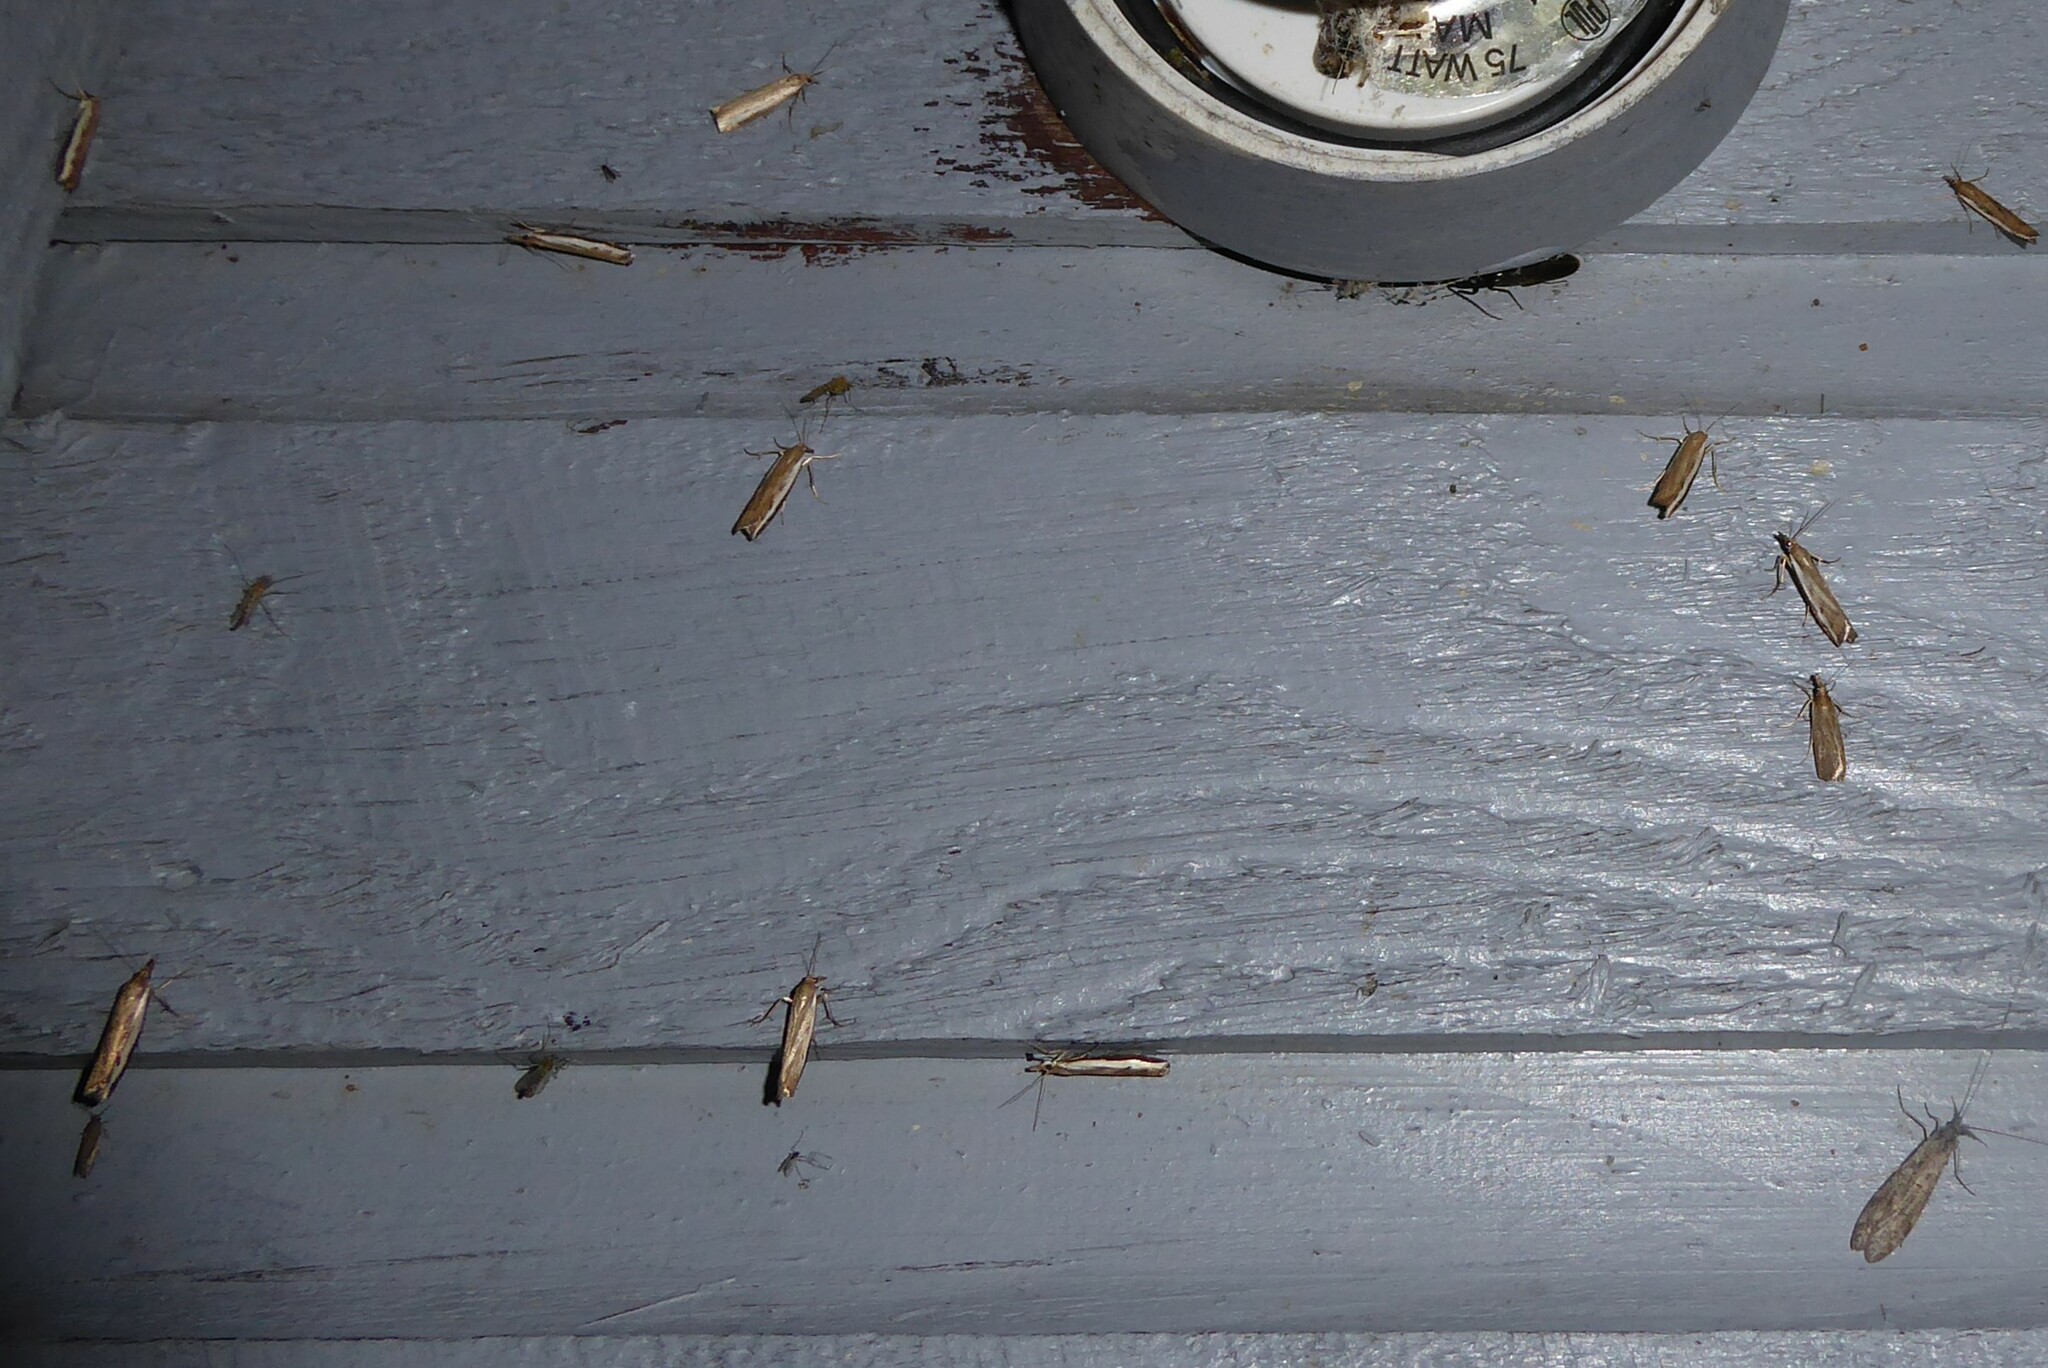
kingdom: Animalia
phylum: Arthropoda
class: Insecta
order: Lepidoptera
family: Crambidae
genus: Orocrambus
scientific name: Orocrambus flexuosellus
